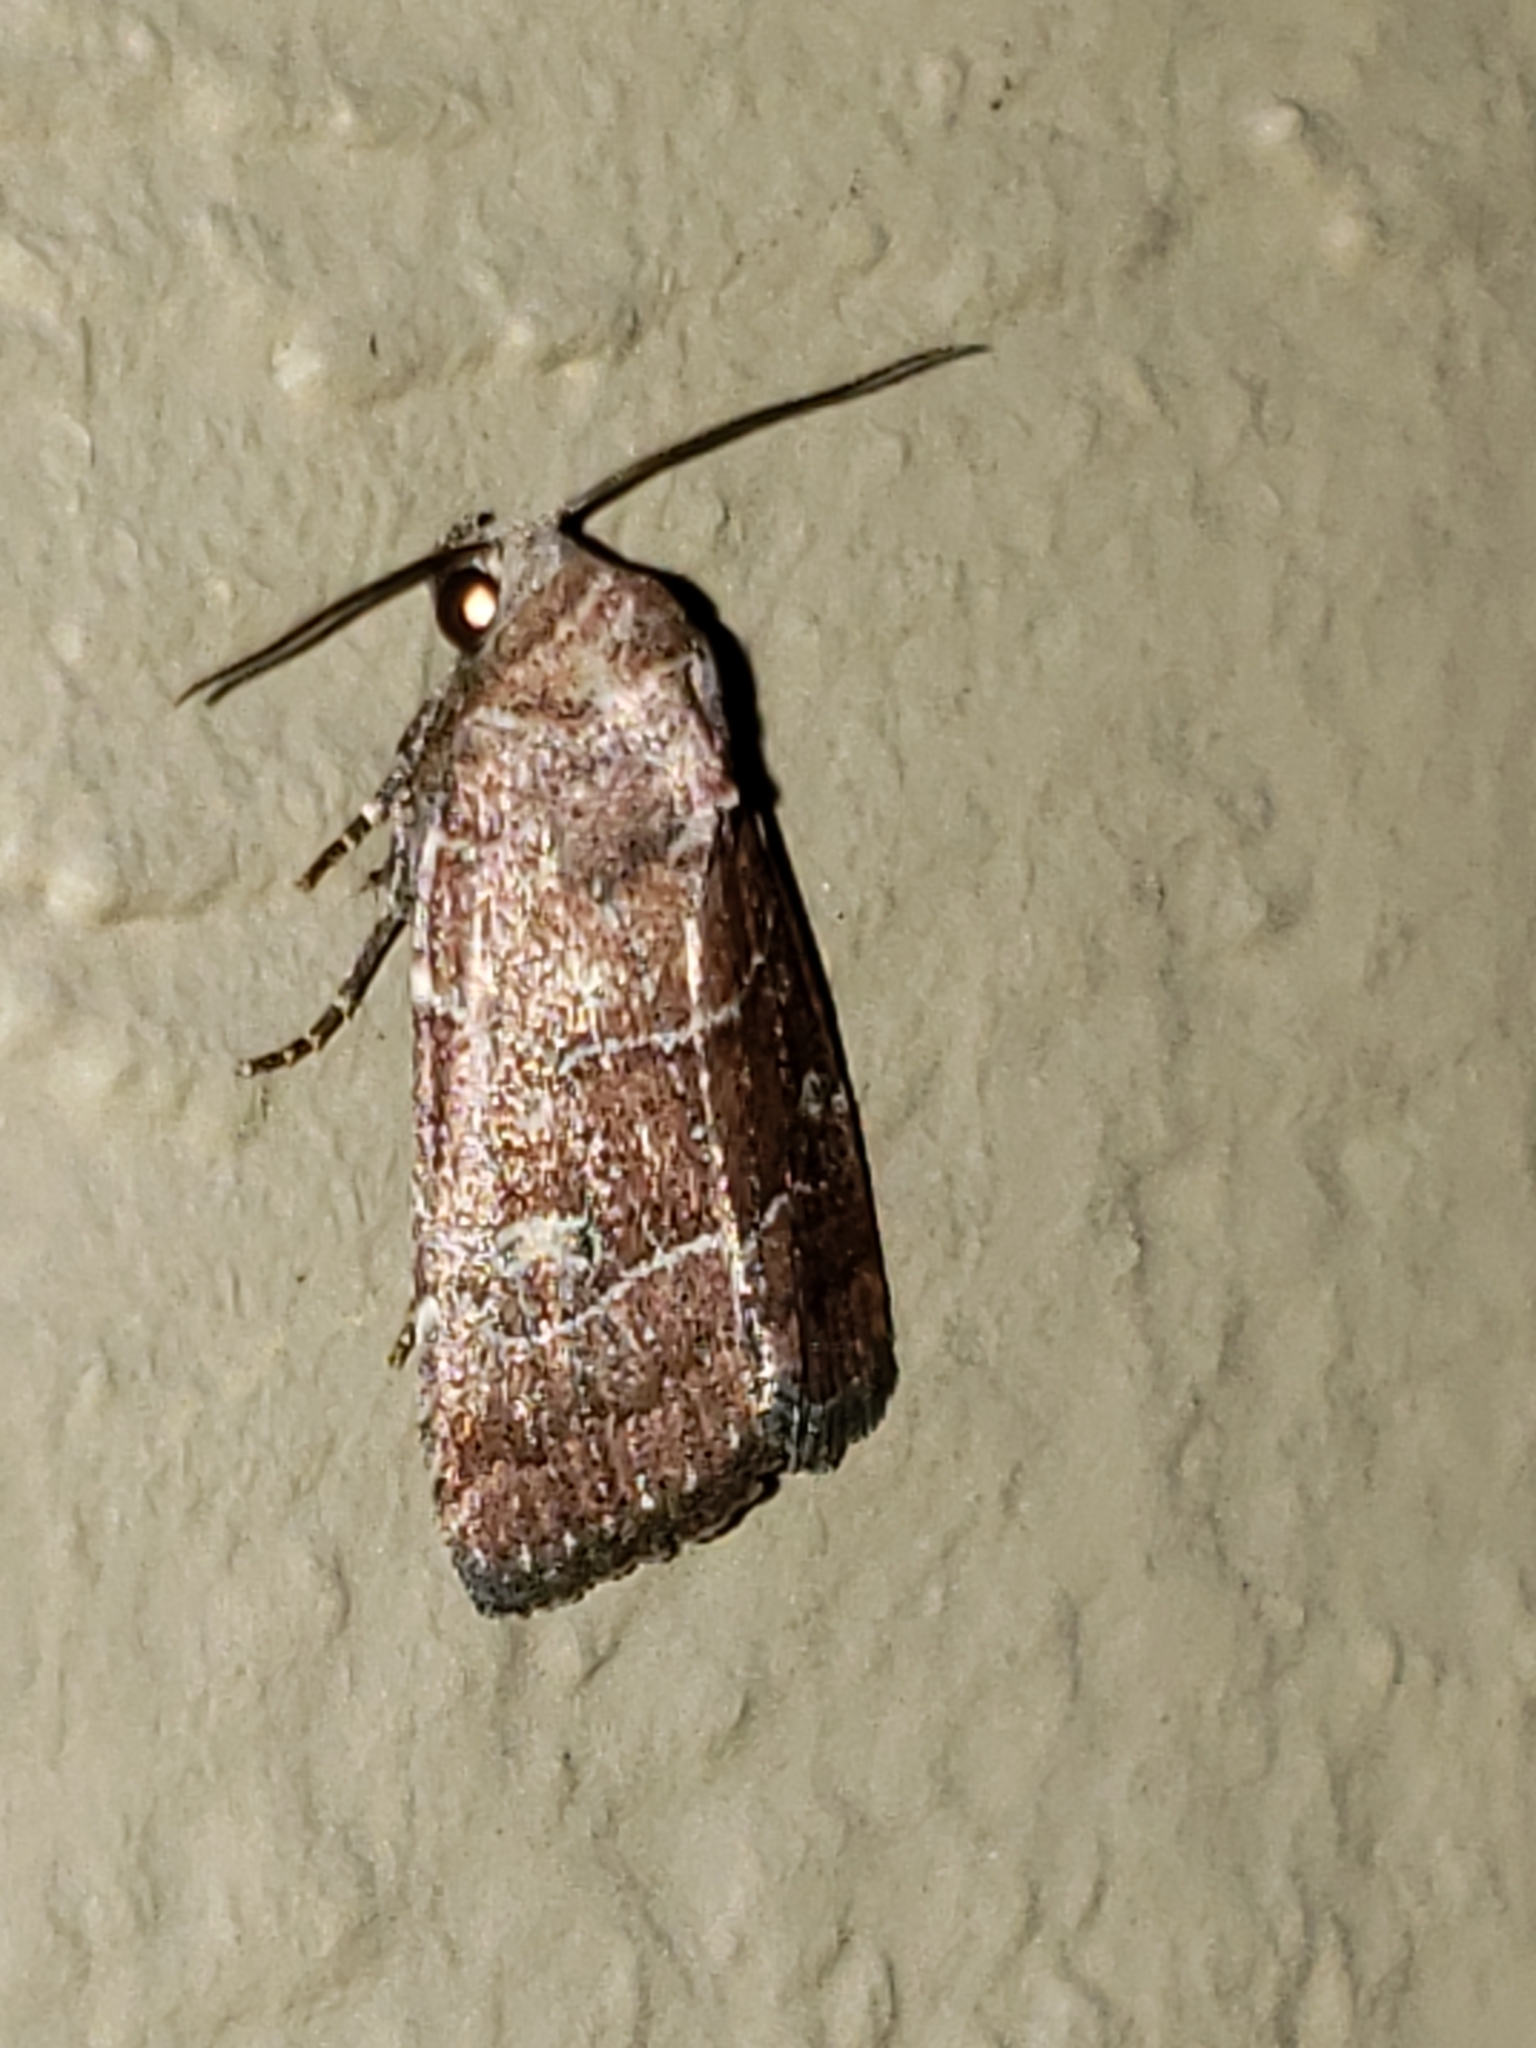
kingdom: Animalia
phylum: Arthropoda
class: Insecta
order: Lepidoptera
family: Noctuidae
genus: Elaphria
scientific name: Elaphria grata
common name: Grateful midget moth
